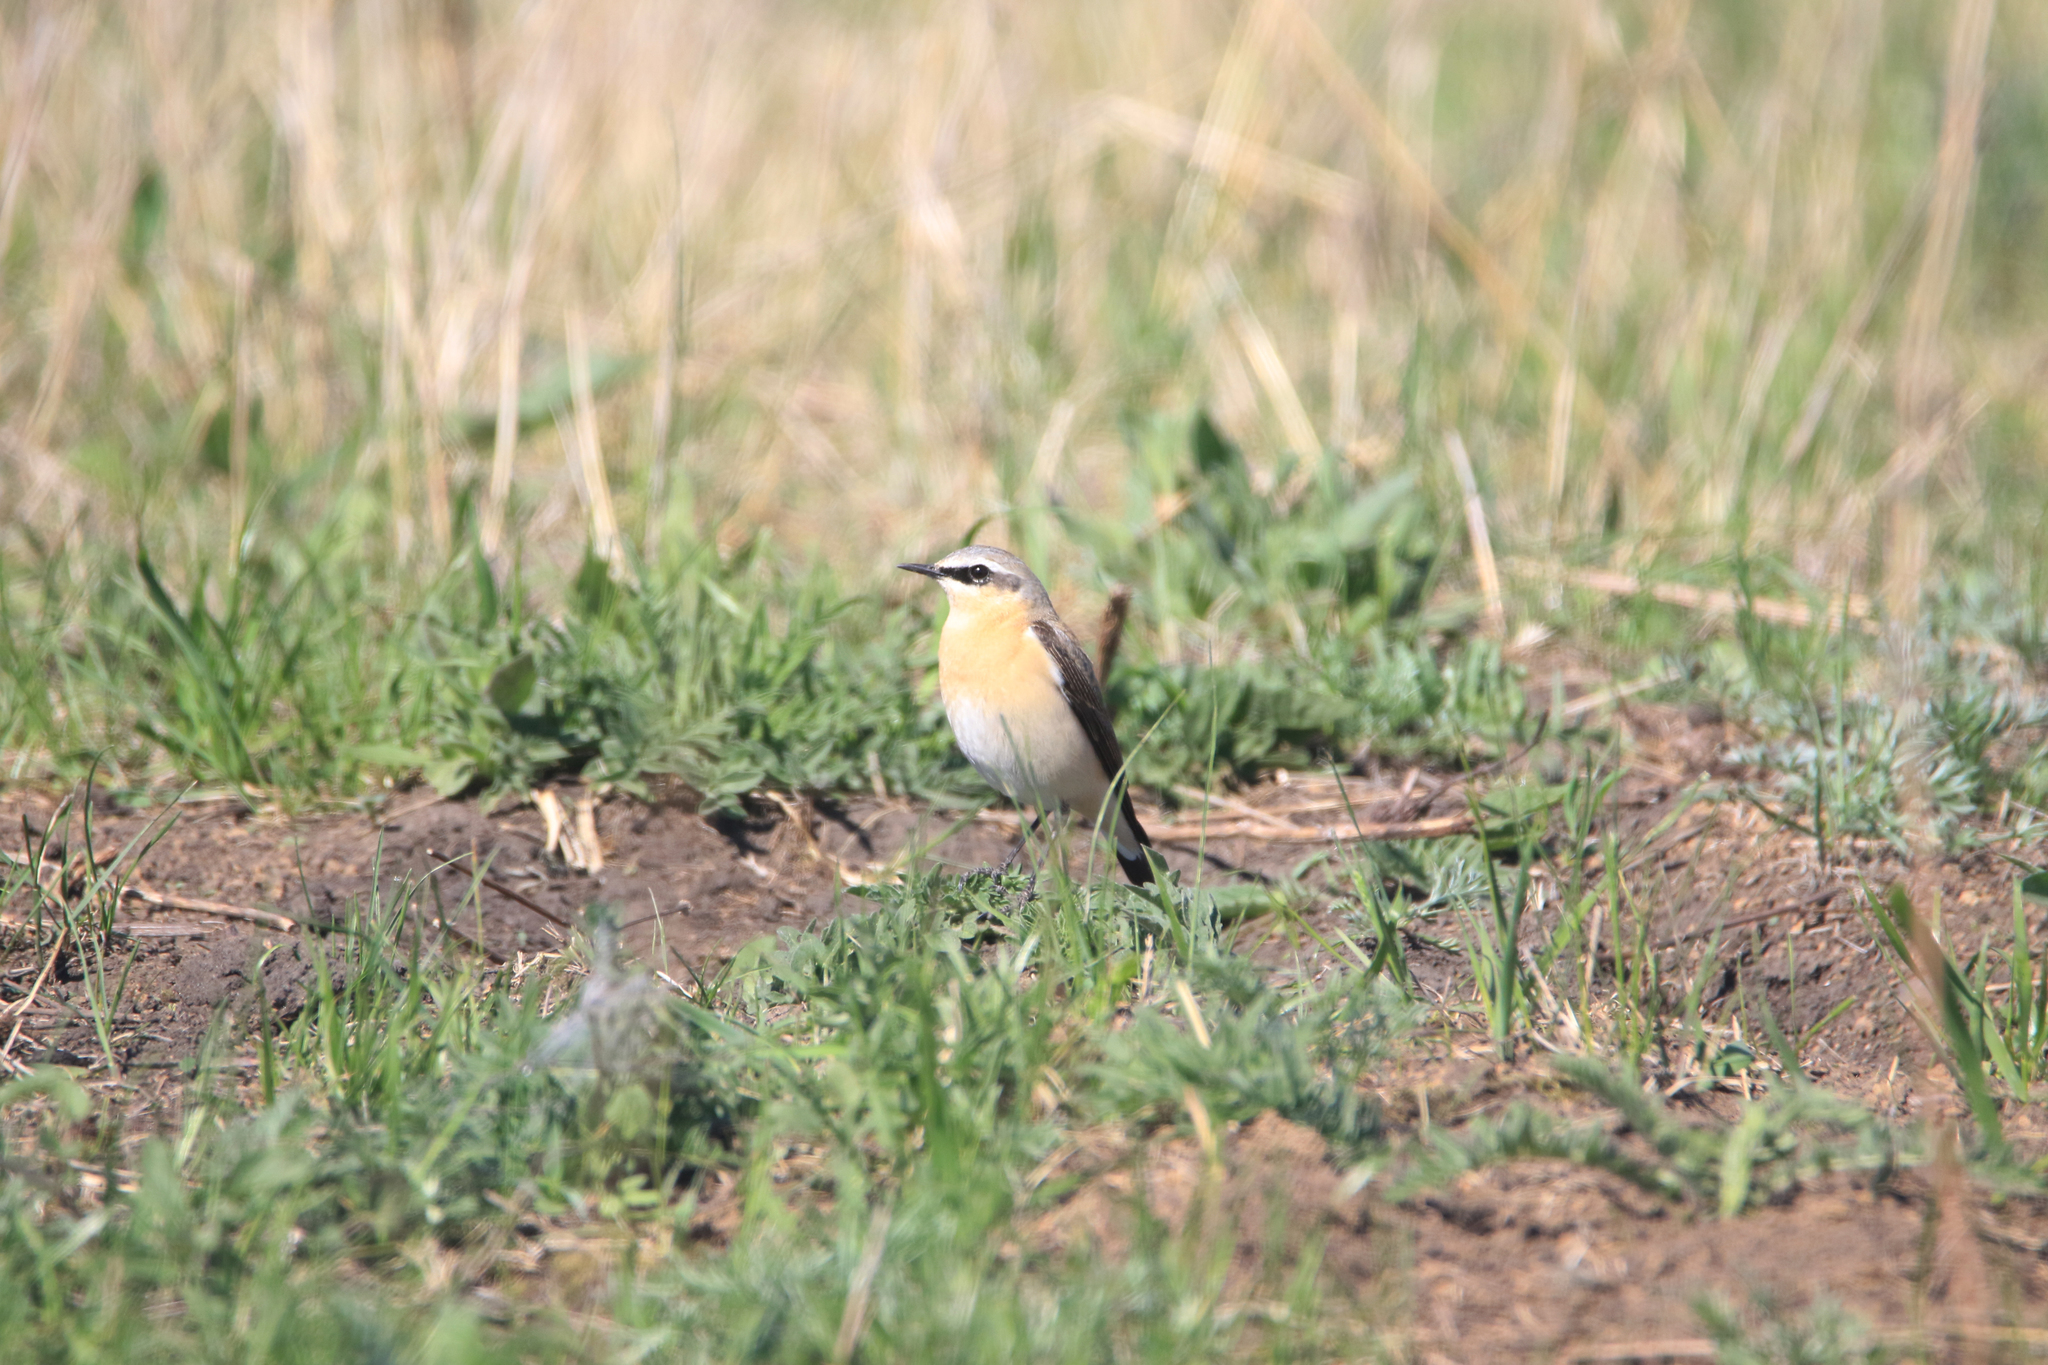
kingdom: Animalia
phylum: Chordata
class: Aves
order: Passeriformes
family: Muscicapidae
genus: Oenanthe
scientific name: Oenanthe oenanthe
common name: Northern wheatear
